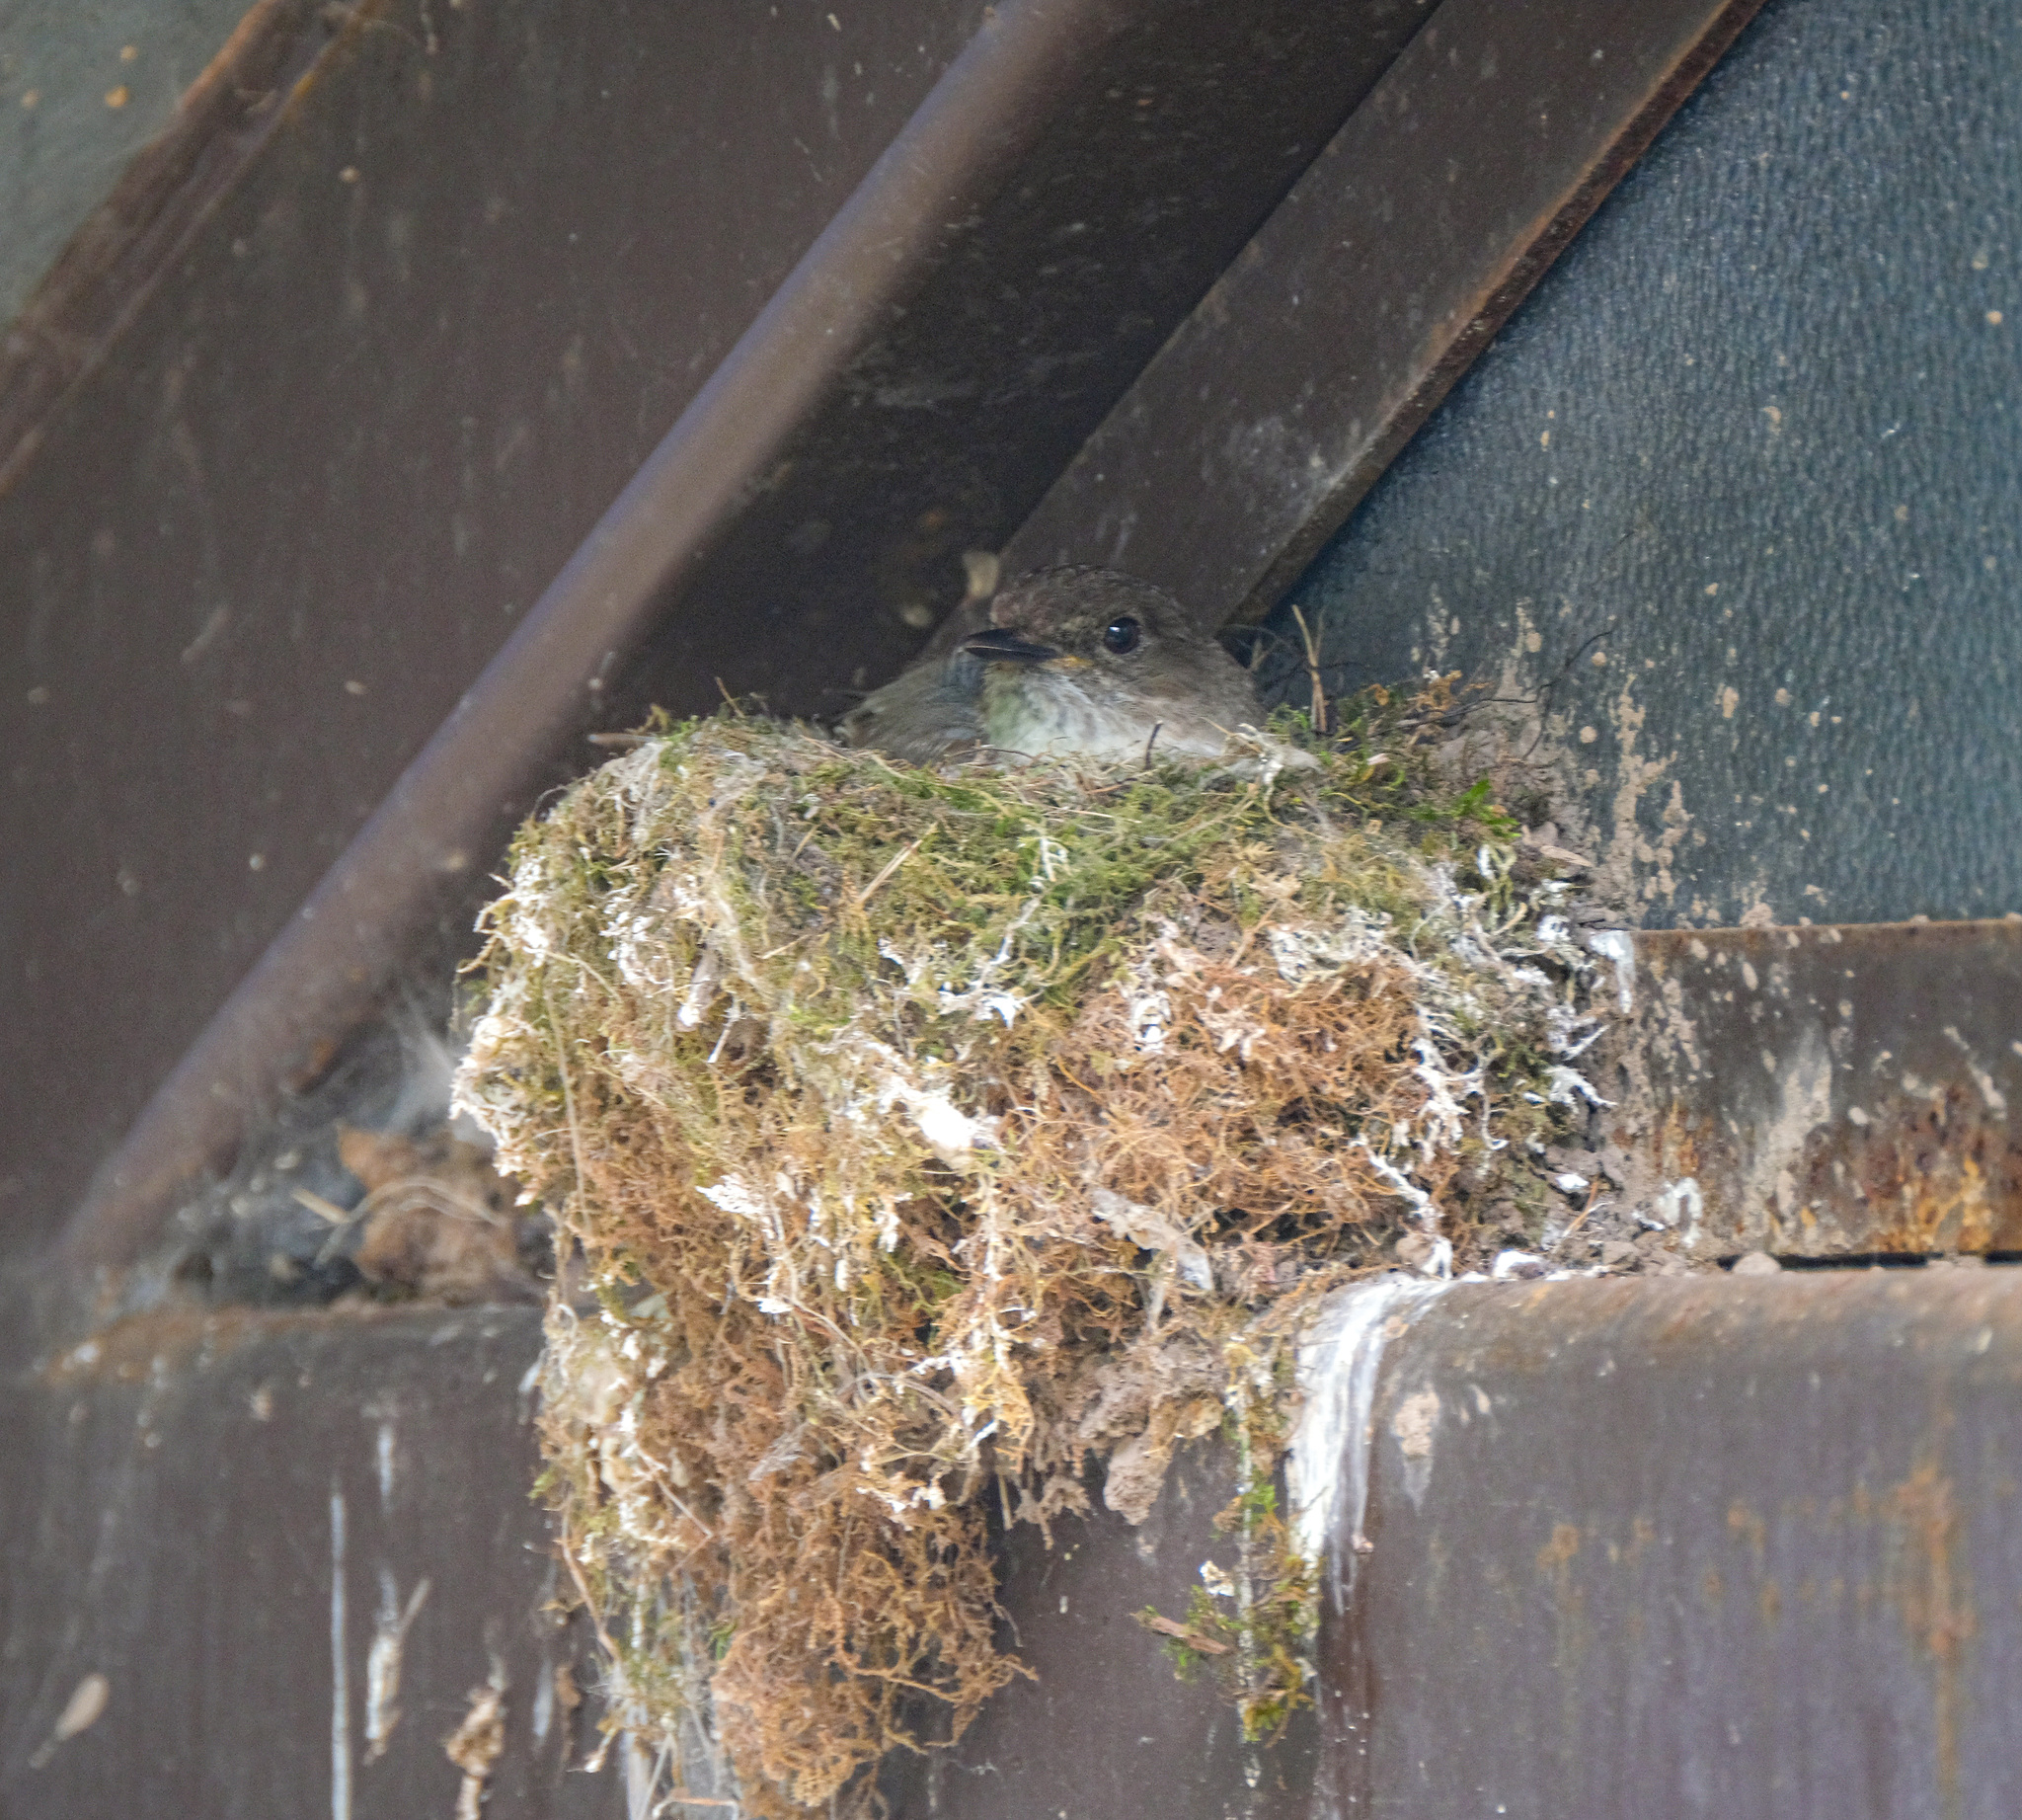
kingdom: Animalia
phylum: Chordata
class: Aves
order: Passeriformes
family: Tyrannidae
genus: Sayornis
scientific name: Sayornis phoebe
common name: Eastern phoebe
